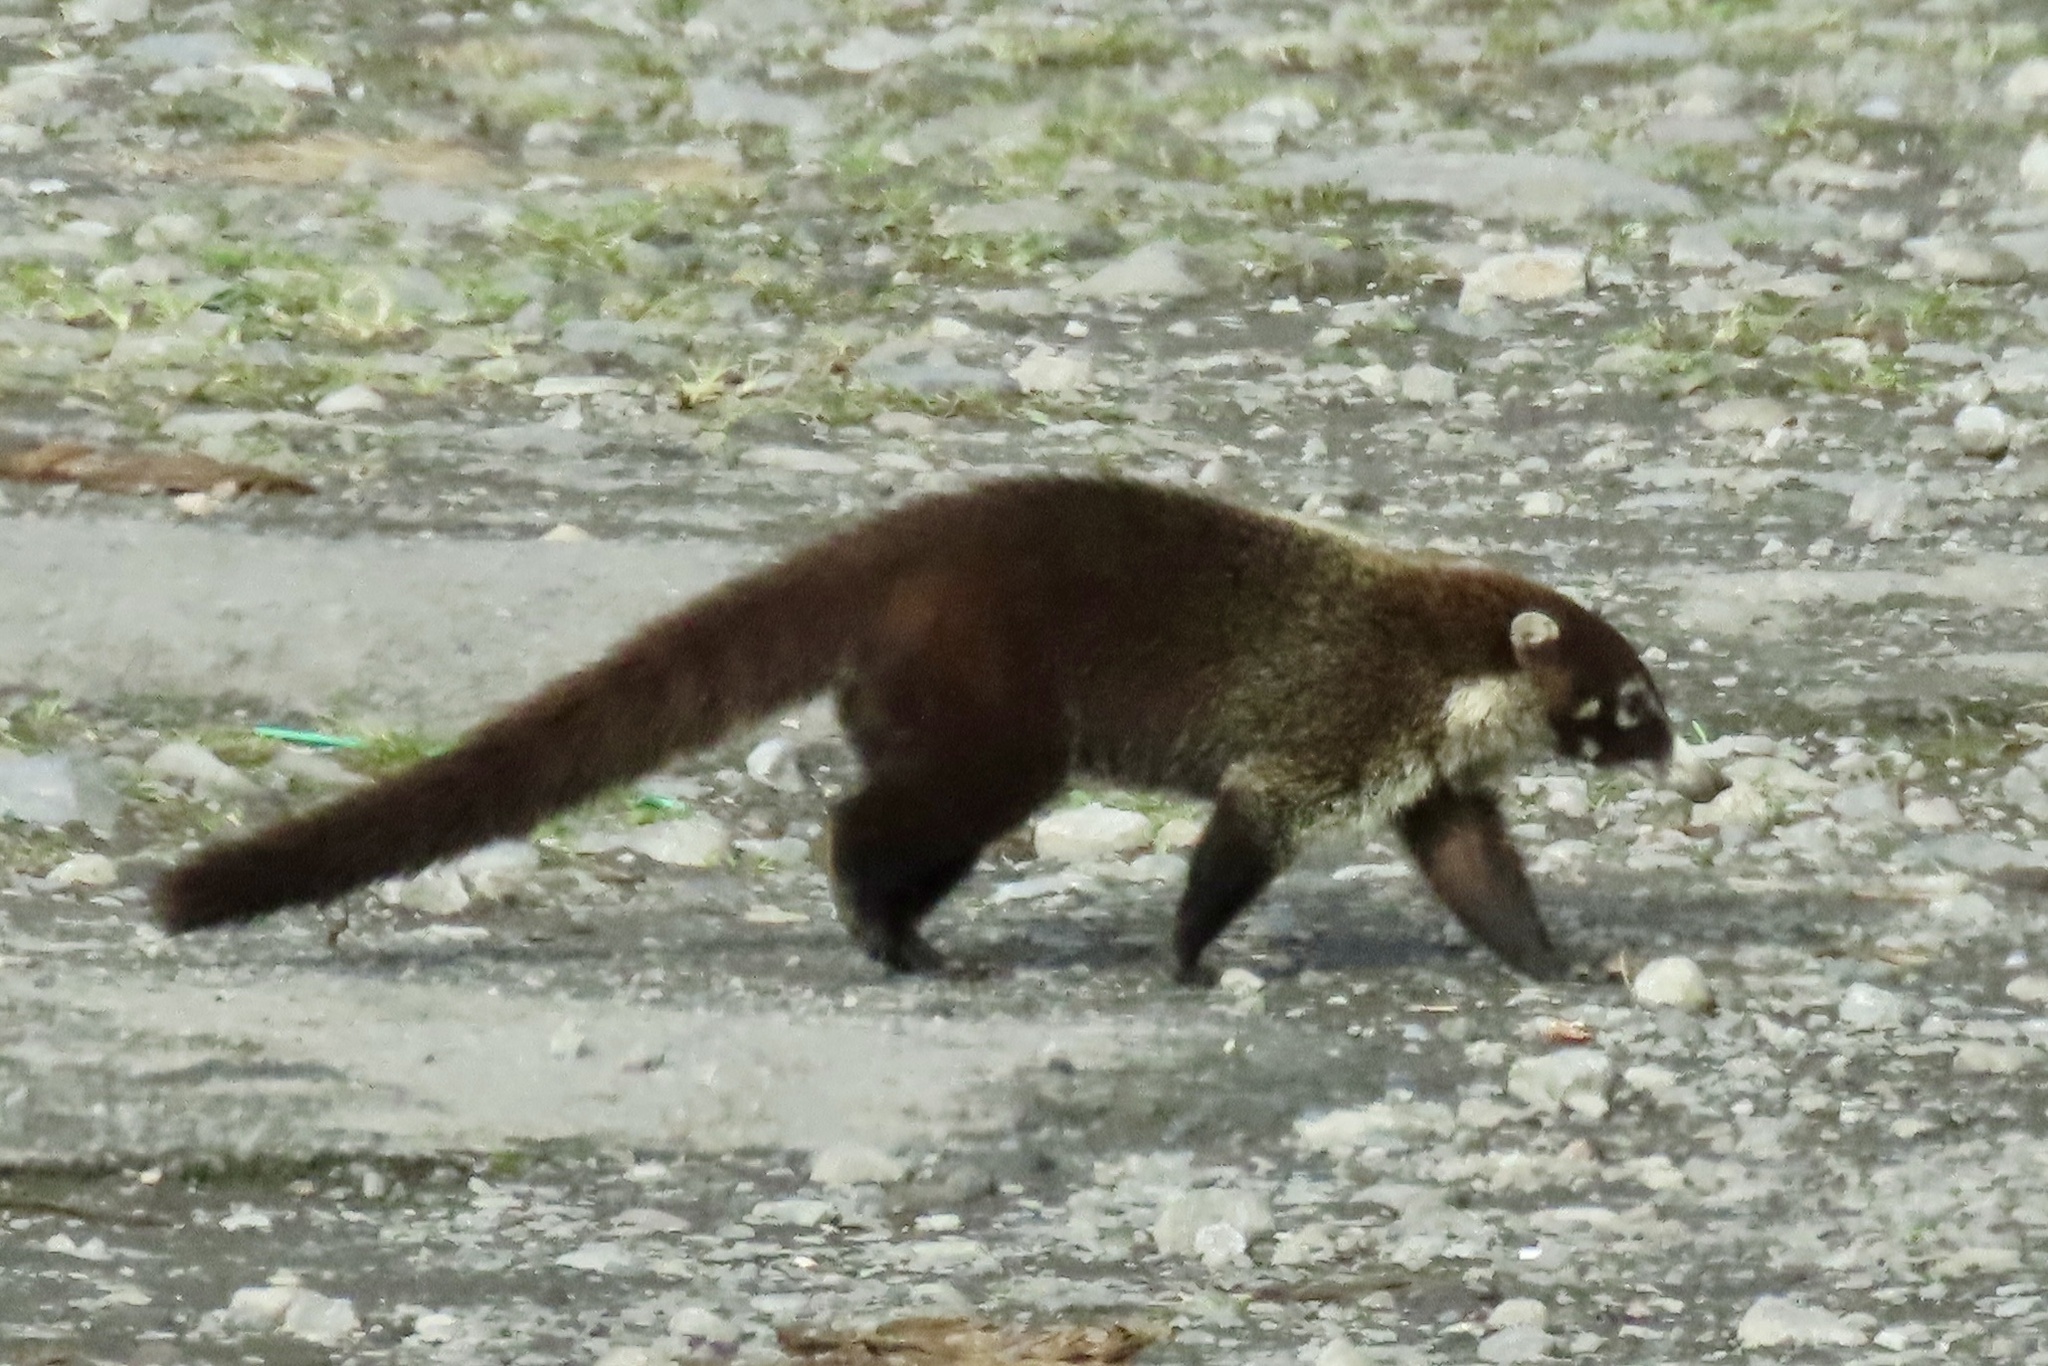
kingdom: Animalia
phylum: Chordata
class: Mammalia
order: Carnivora
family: Procyonidae
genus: Nasua
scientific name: Nasua narica
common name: White-nosed coati
